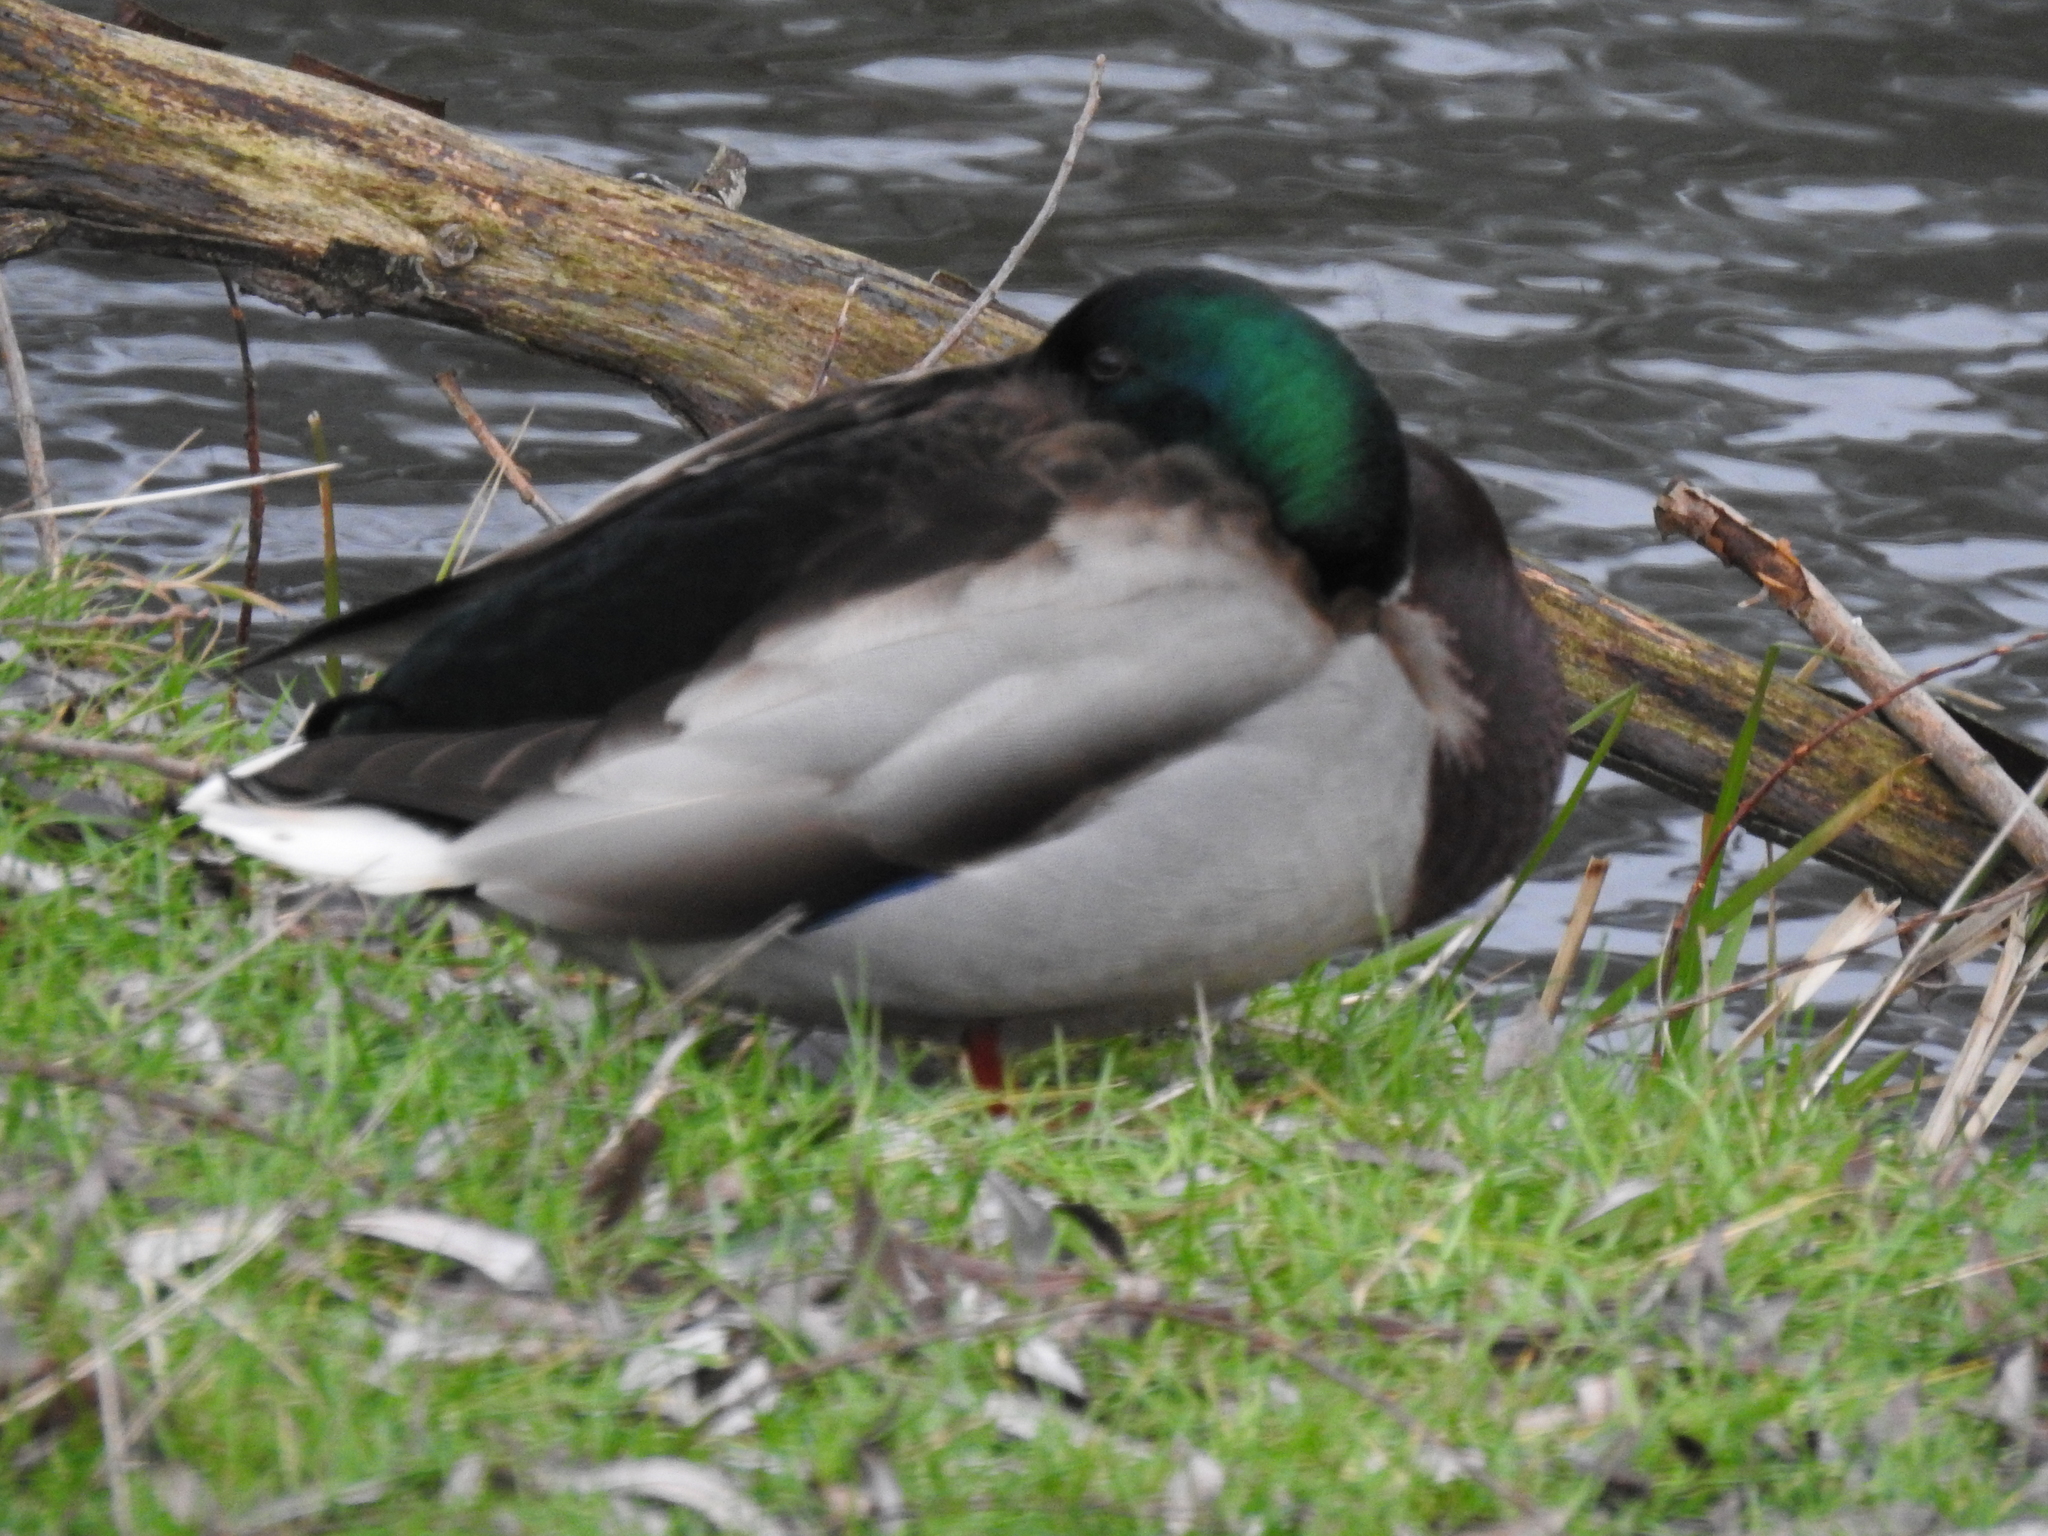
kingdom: Animalia
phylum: Chordata
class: Aves
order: Anseriformes
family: Anatidae
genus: Anas
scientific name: Anas platyrhynchos
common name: Mallard
